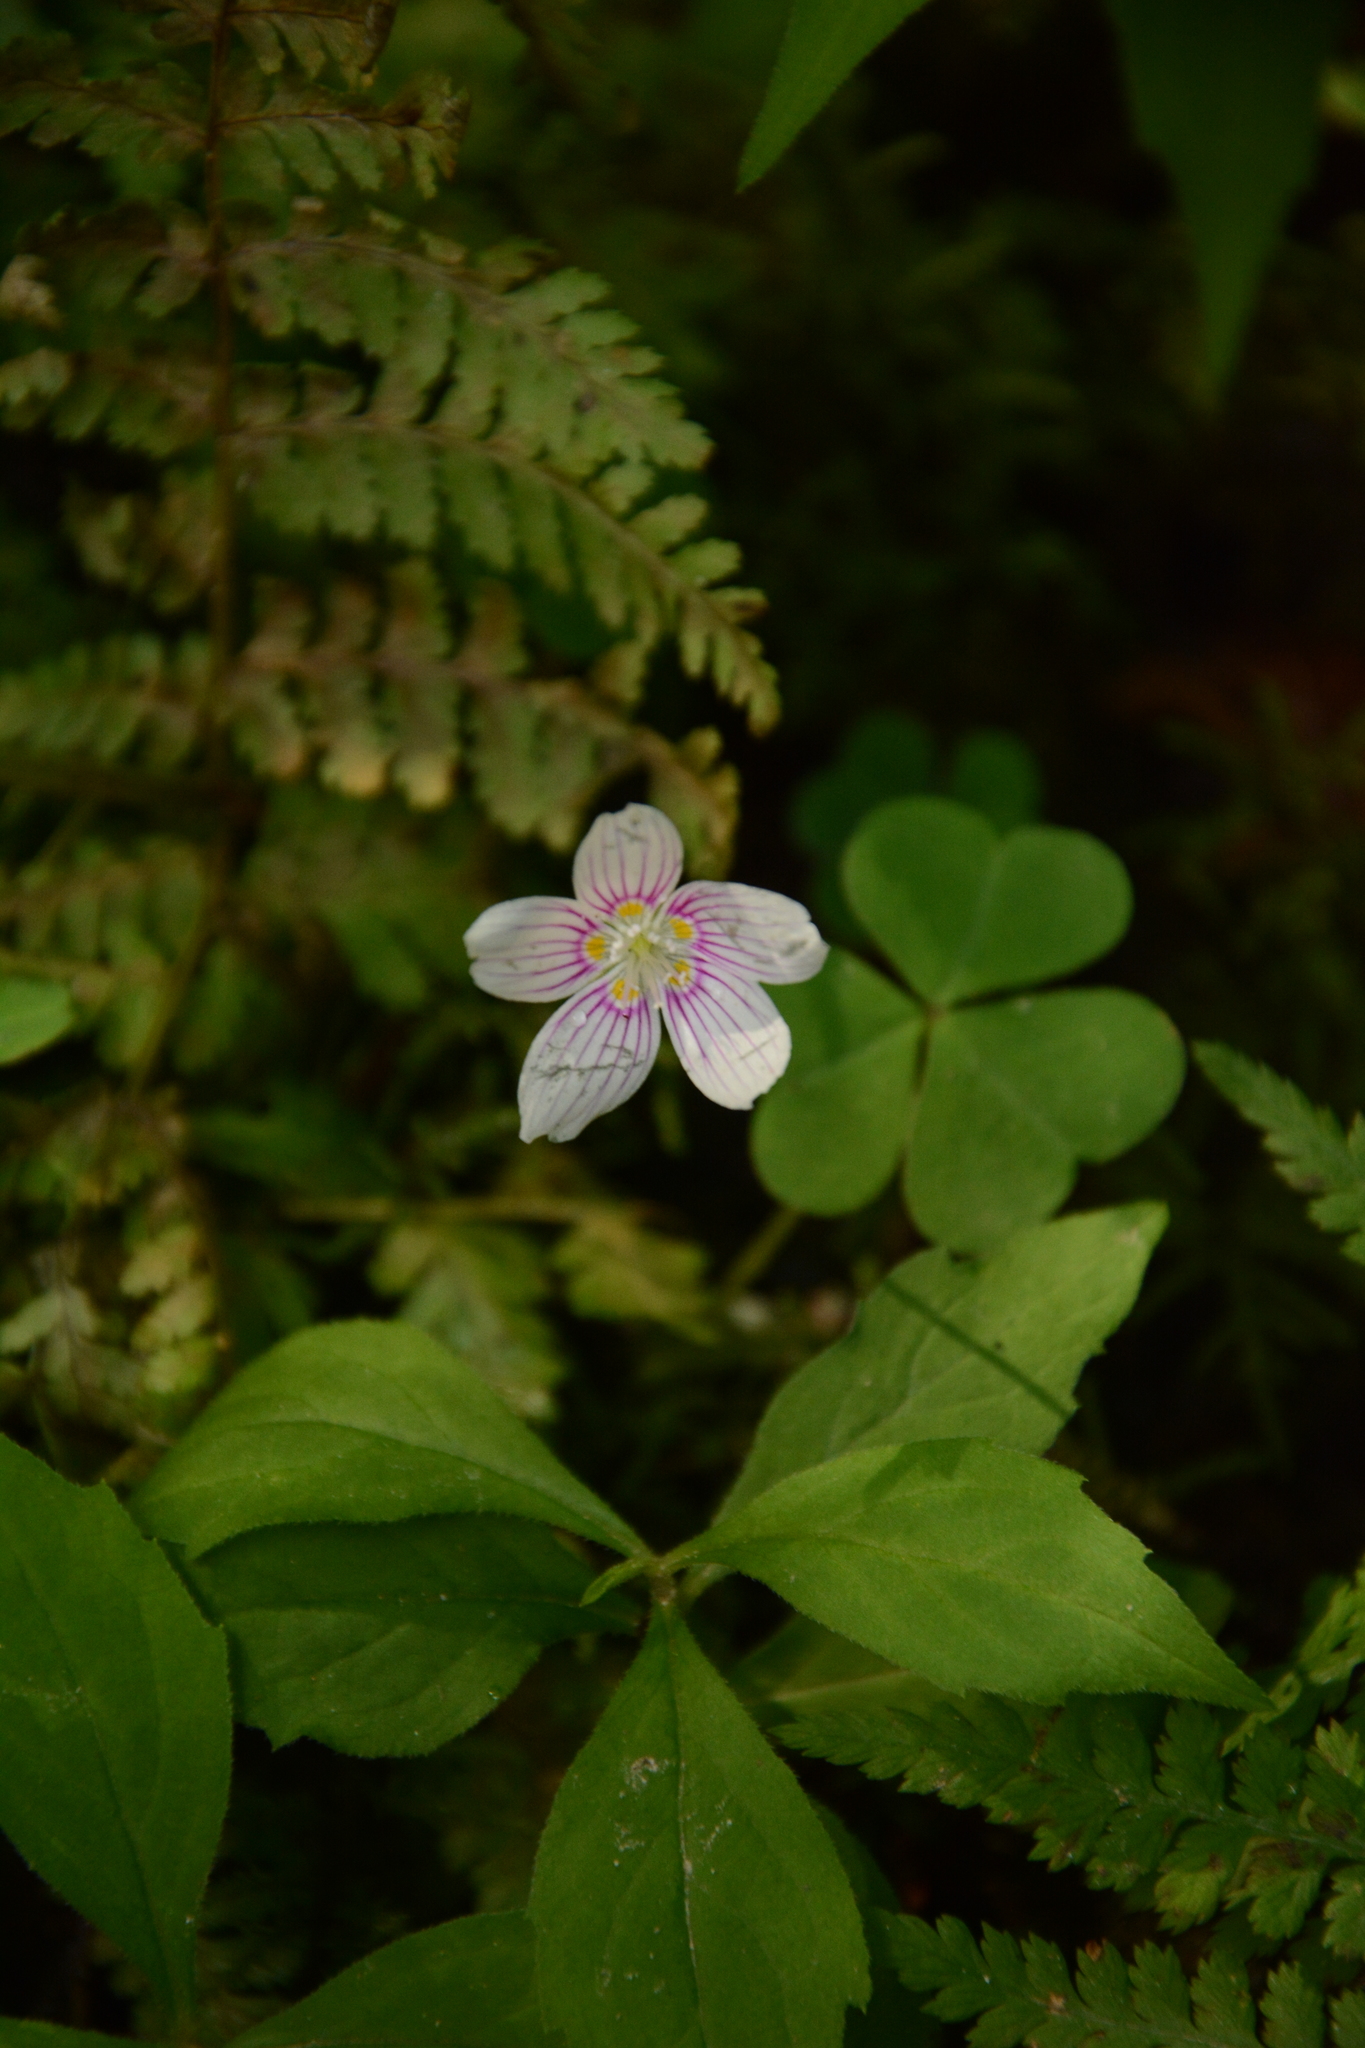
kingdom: Plantae
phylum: Tracheophyta
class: Magnoliopsida
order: Oxalidales
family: Oxalidaceae
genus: Oxalis
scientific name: Oxalis montana
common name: American wood-sorrel
